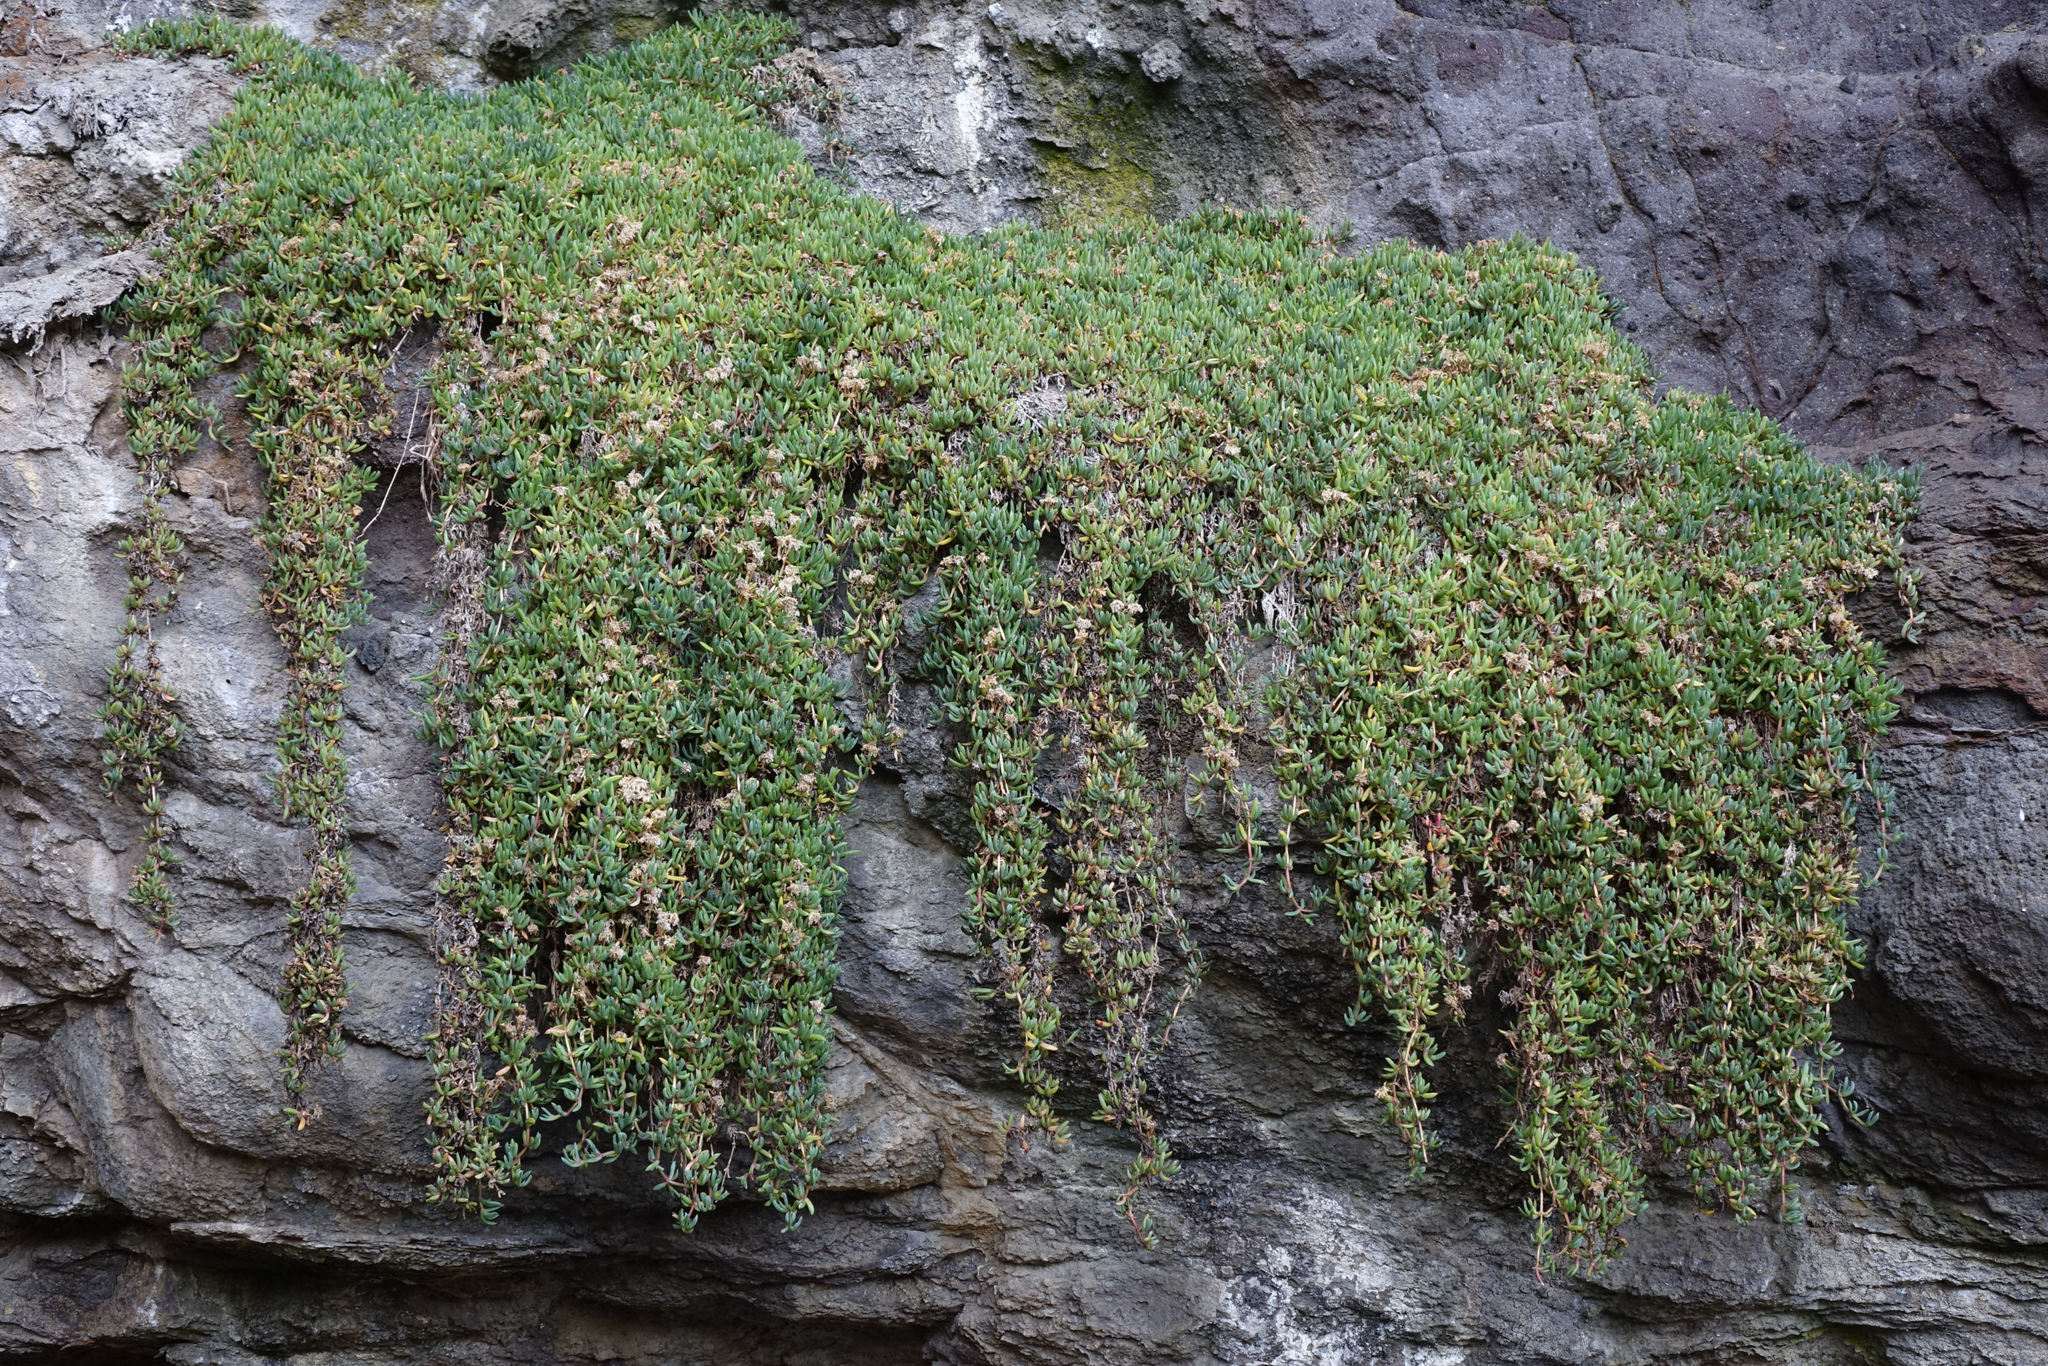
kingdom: Plantae
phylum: Tracheophyta
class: Magnoliopsida
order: Caryophyllales
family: Aizoaceae
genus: Disphyma
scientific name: Disphyma australe
